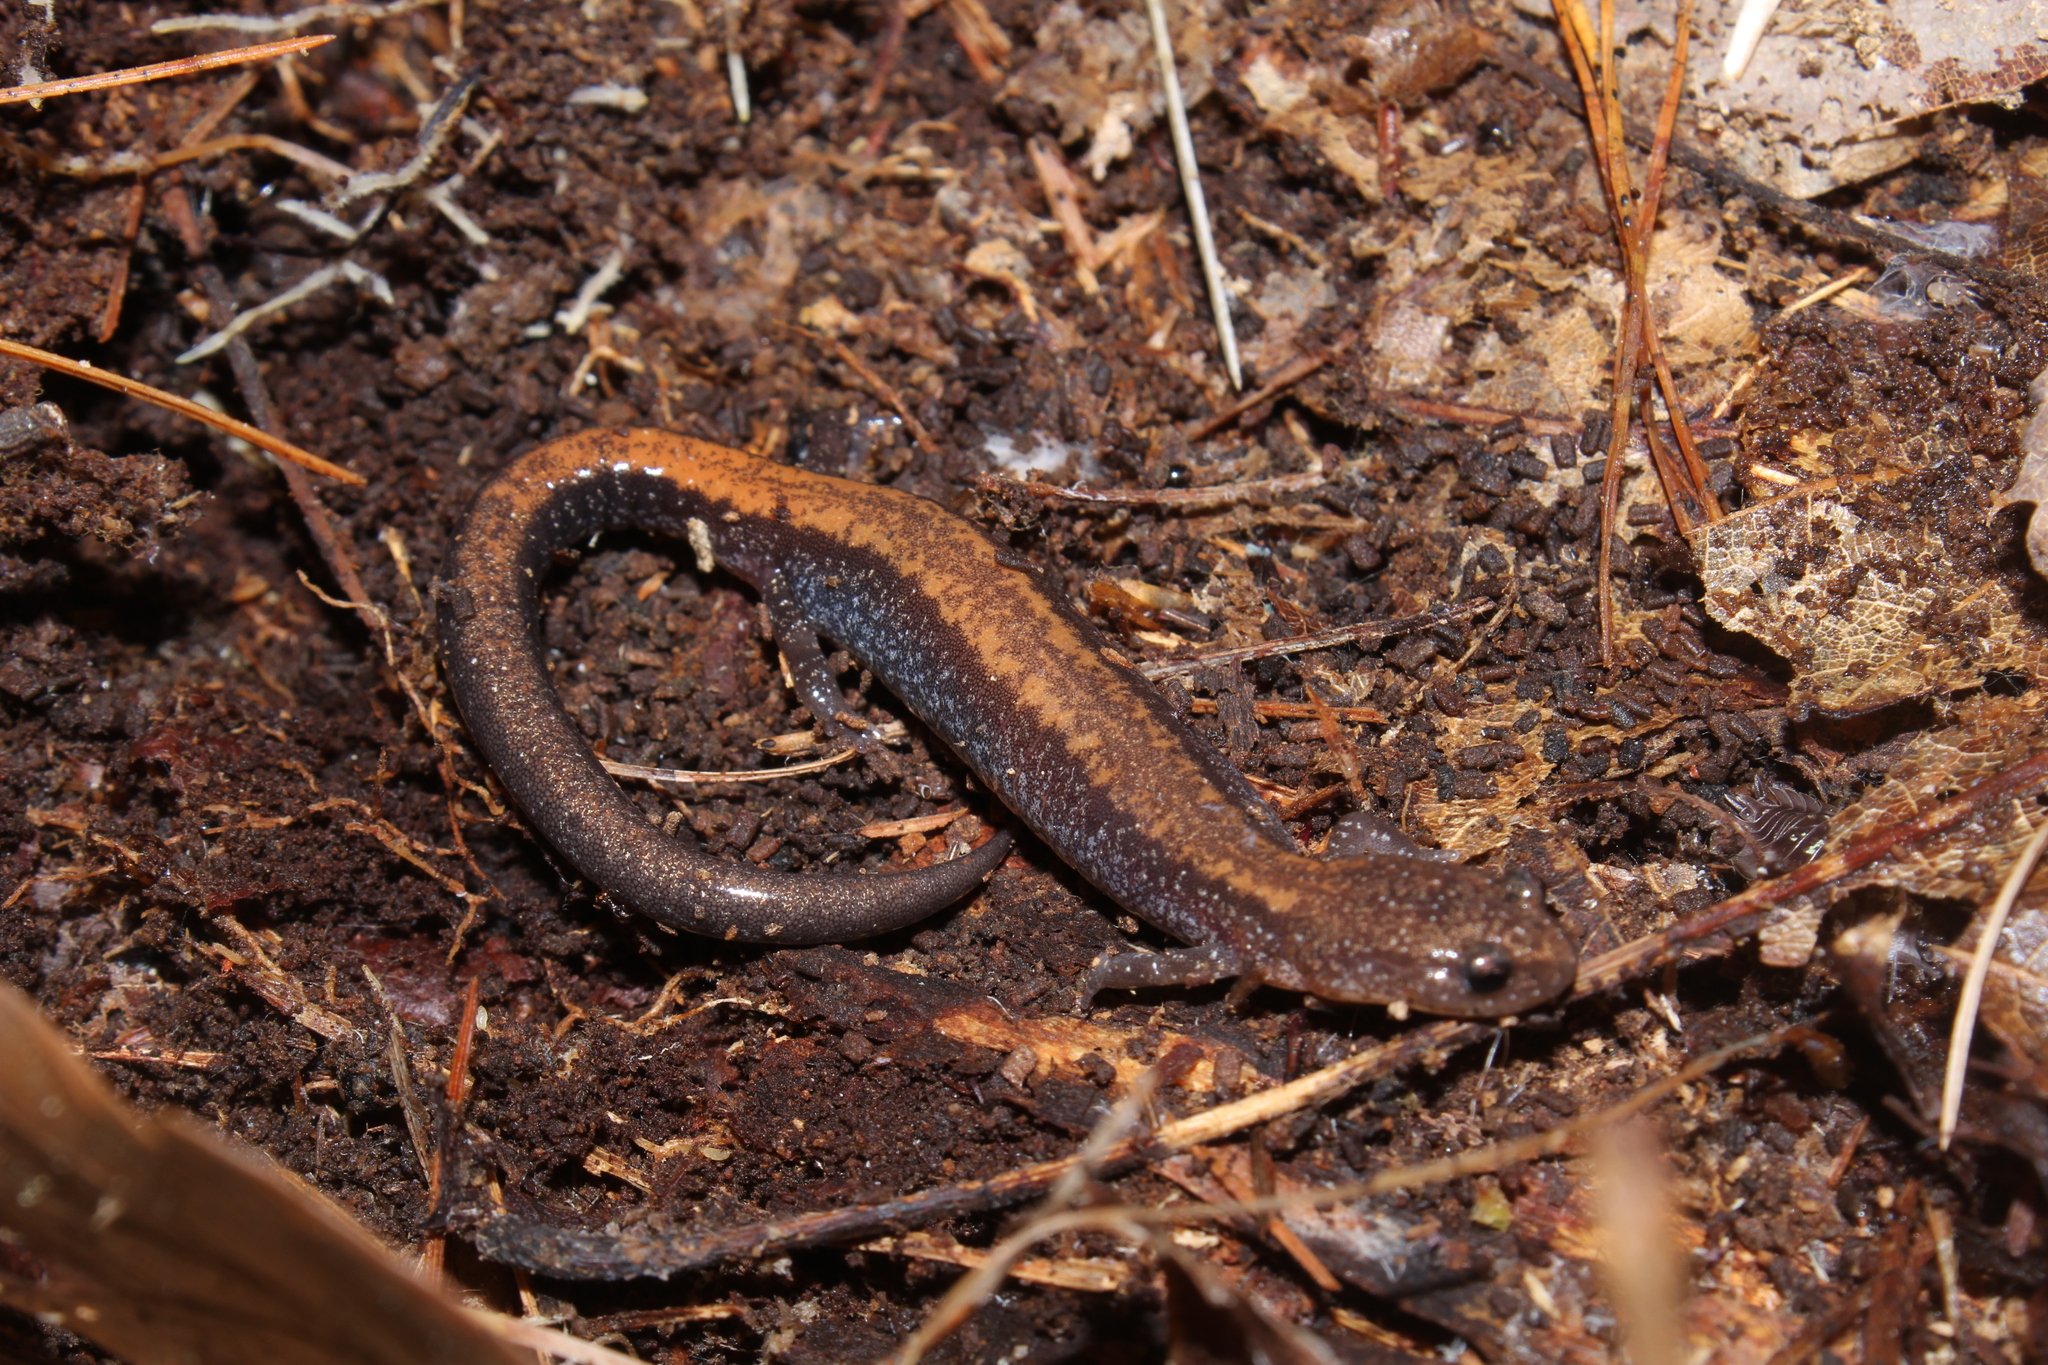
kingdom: Animalia
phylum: Chordata
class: Amphibia
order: Caudata
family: Plethodontidae
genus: Plethodon
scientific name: Plethodon cinereus
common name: Redback salamander
